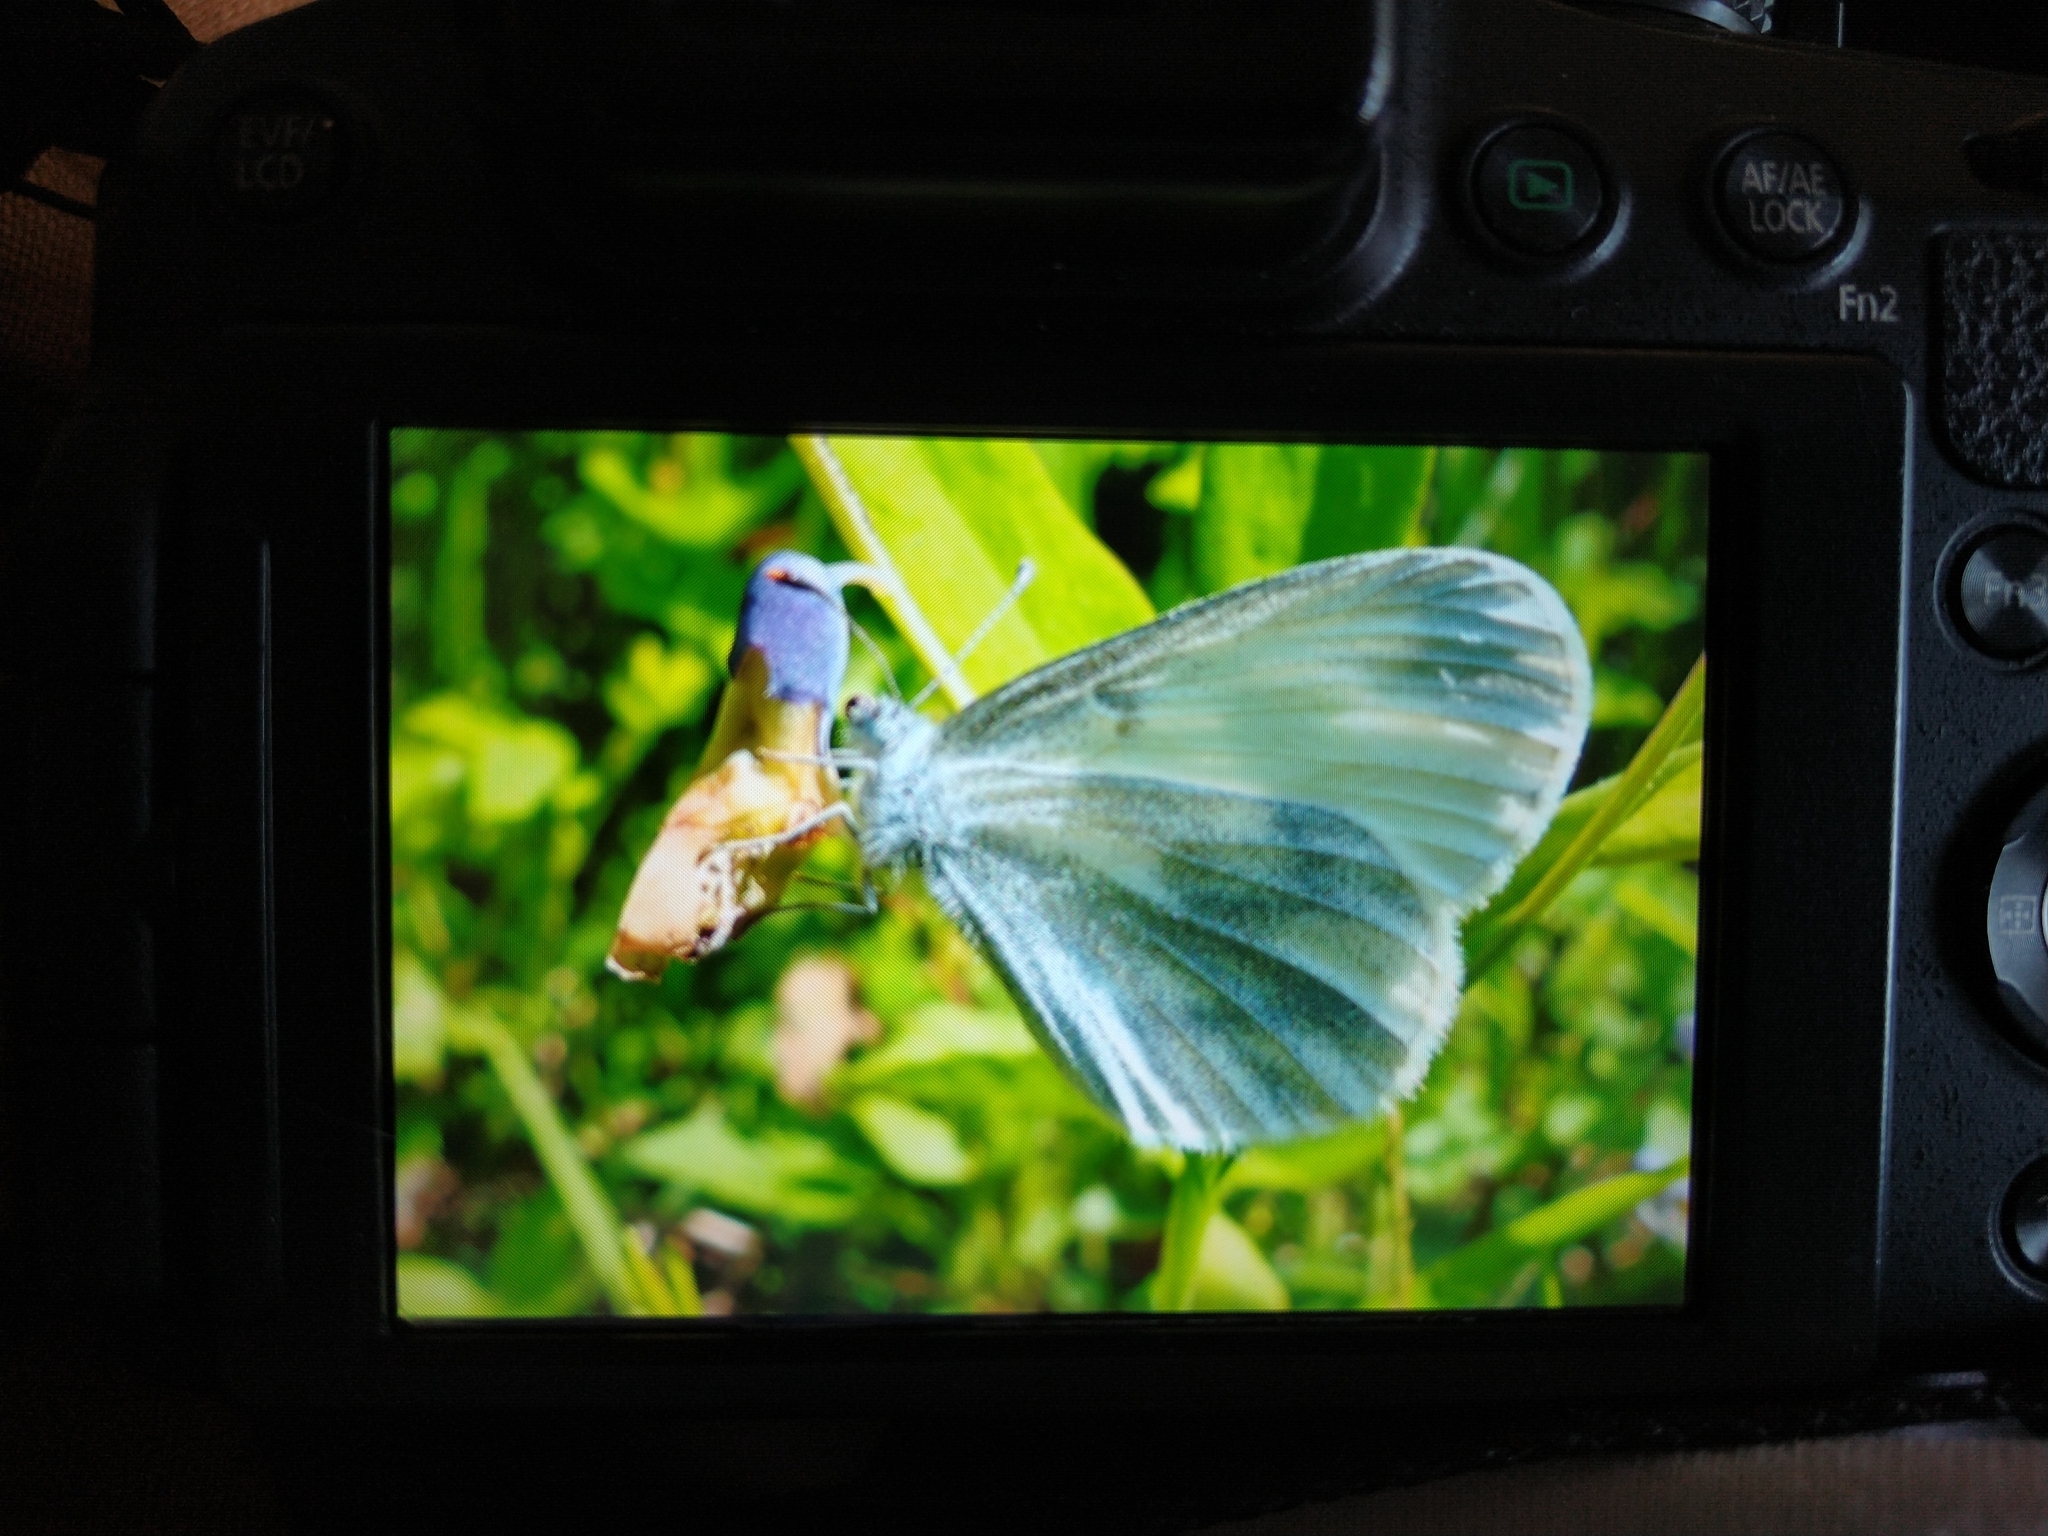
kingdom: Animalia
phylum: Arthropoda
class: Insecta
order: Lepidoptera
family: Pieridae
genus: Leptidea
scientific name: Leptidea sinapis
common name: Wood white
